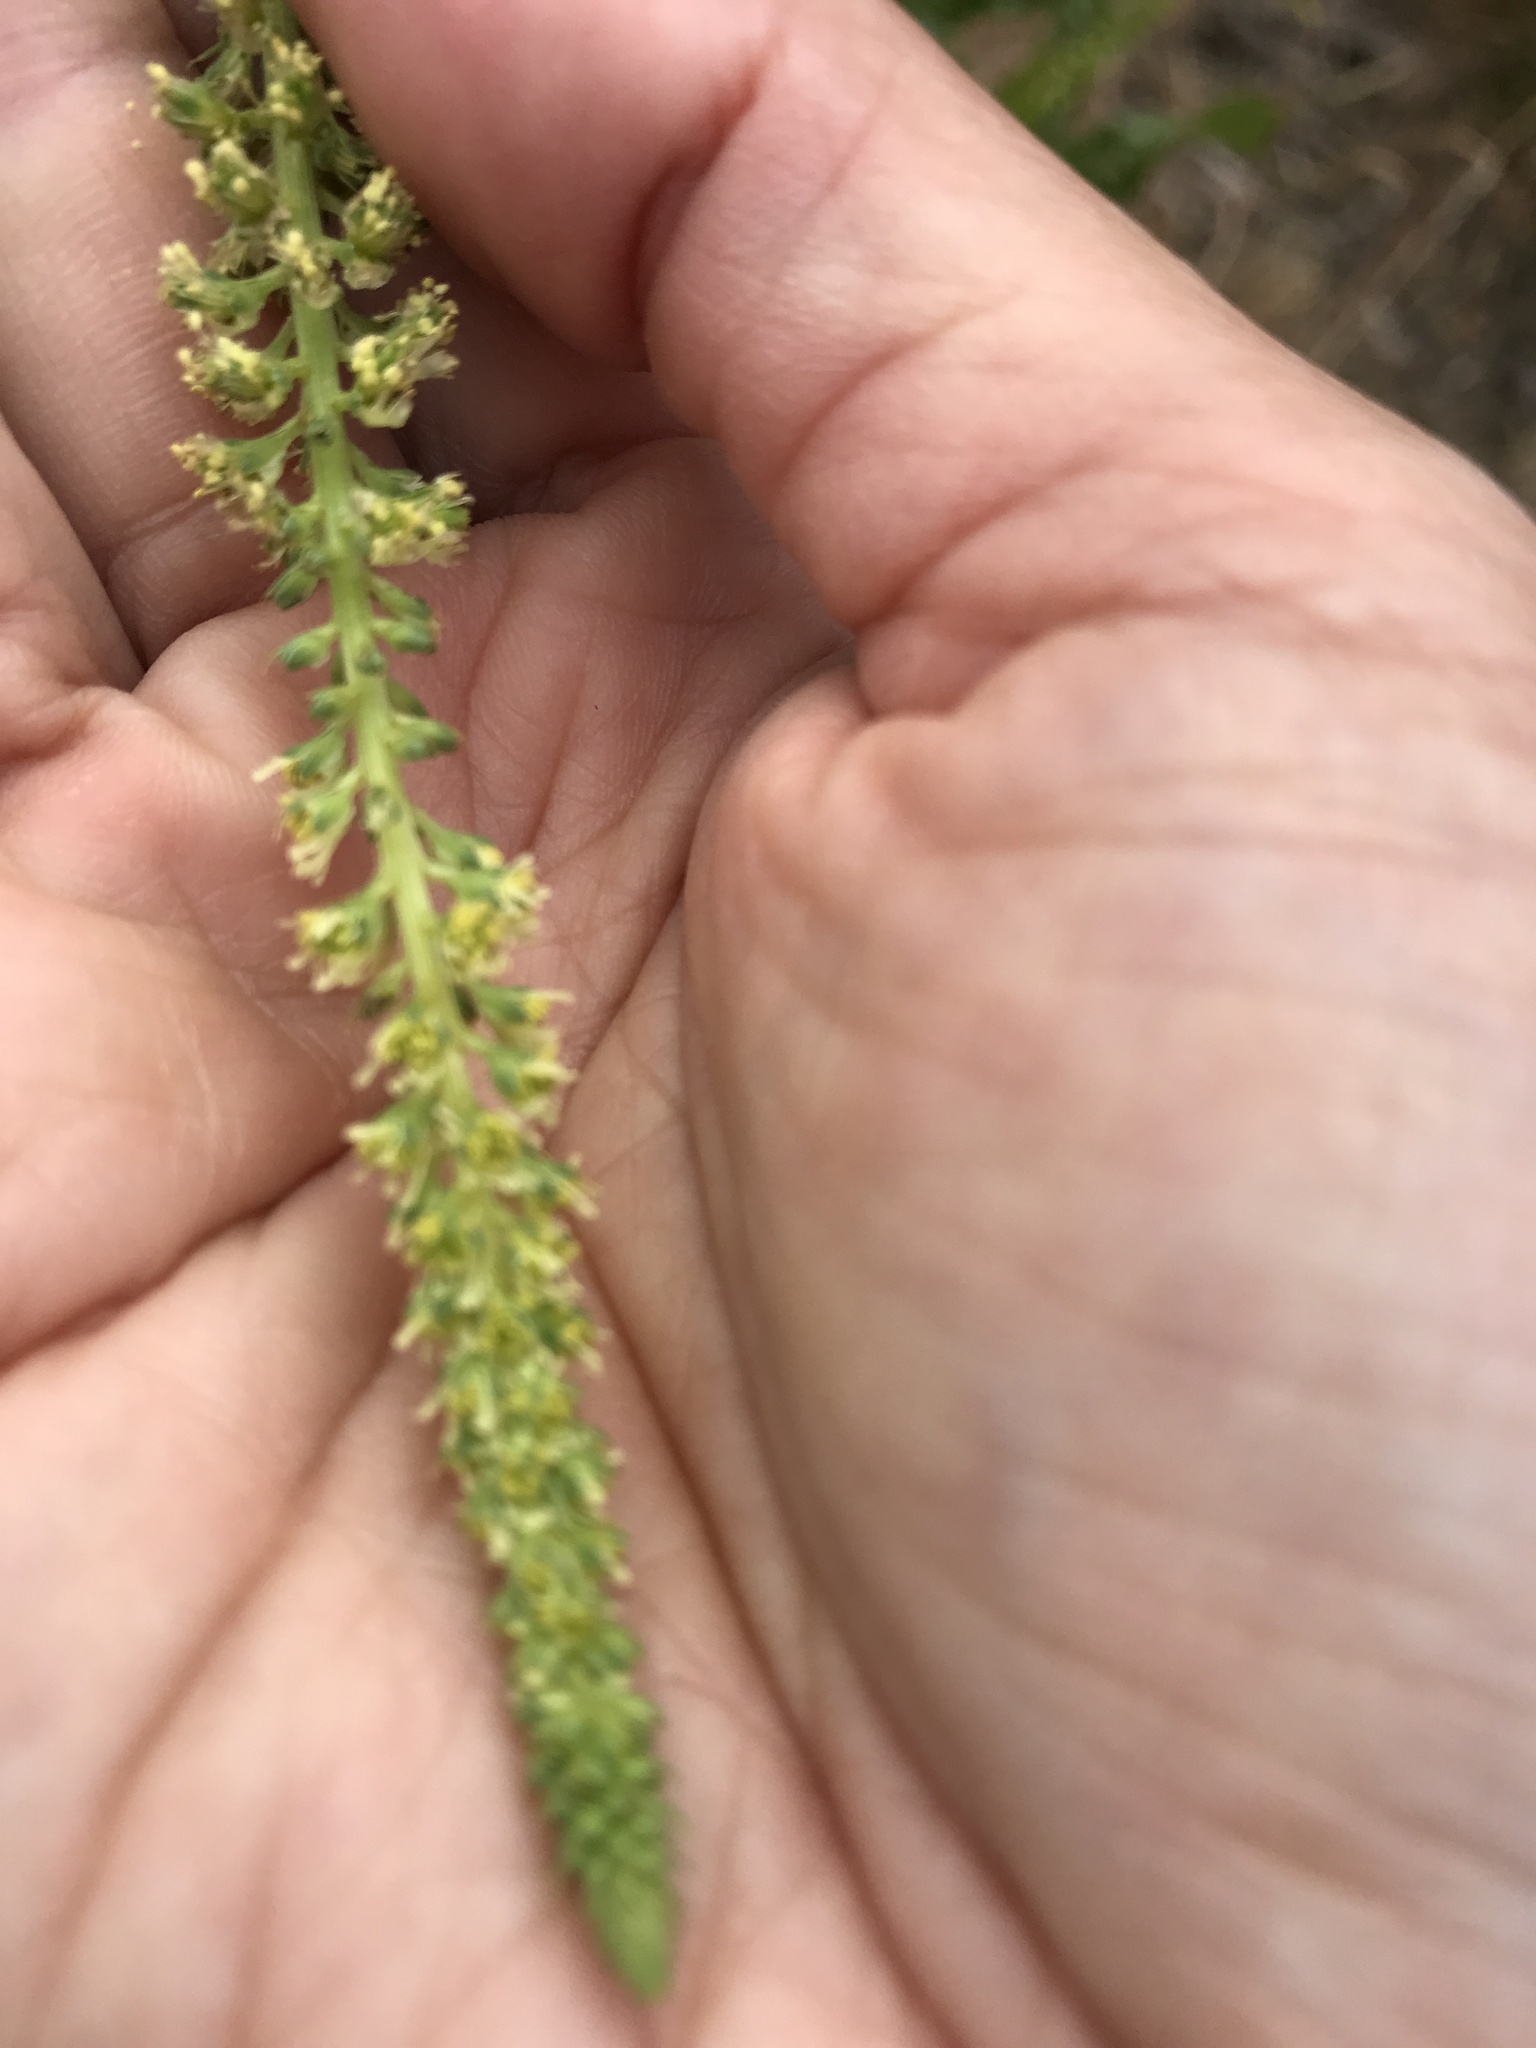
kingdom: Plantae
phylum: Tracheophyta
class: Magnoliopsida
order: Brassicales
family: Resedaceae
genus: Reseda
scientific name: Reseda luteola
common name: Weld
